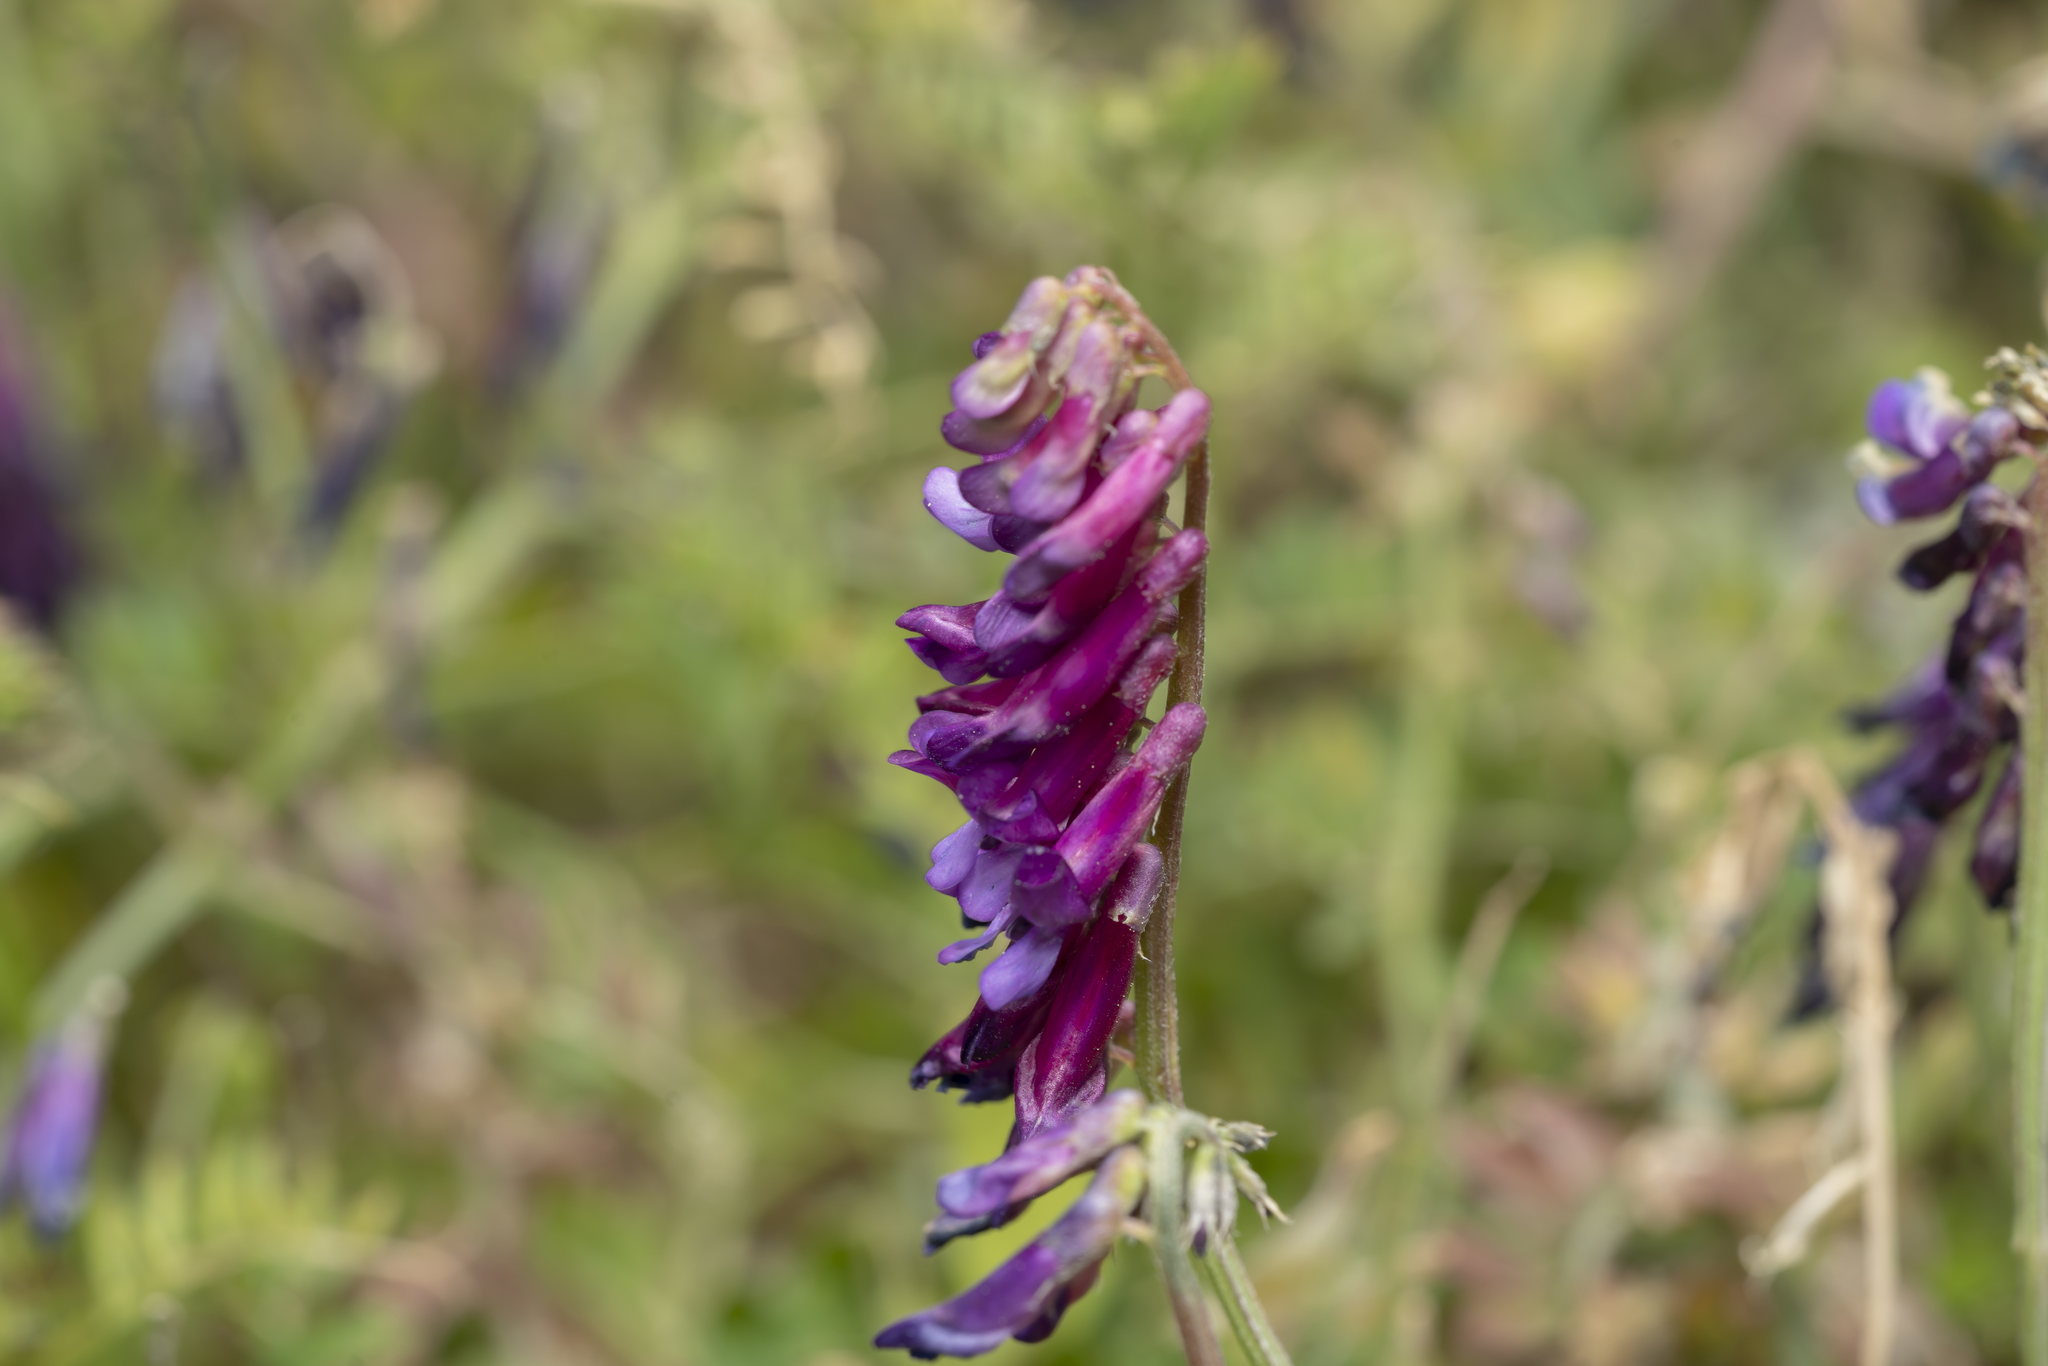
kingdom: Plantae
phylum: Tracheophyta
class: Magnoliopsida
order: Fabales
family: Fabaceae
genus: Vicia
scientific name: Vicia eriocarpa
